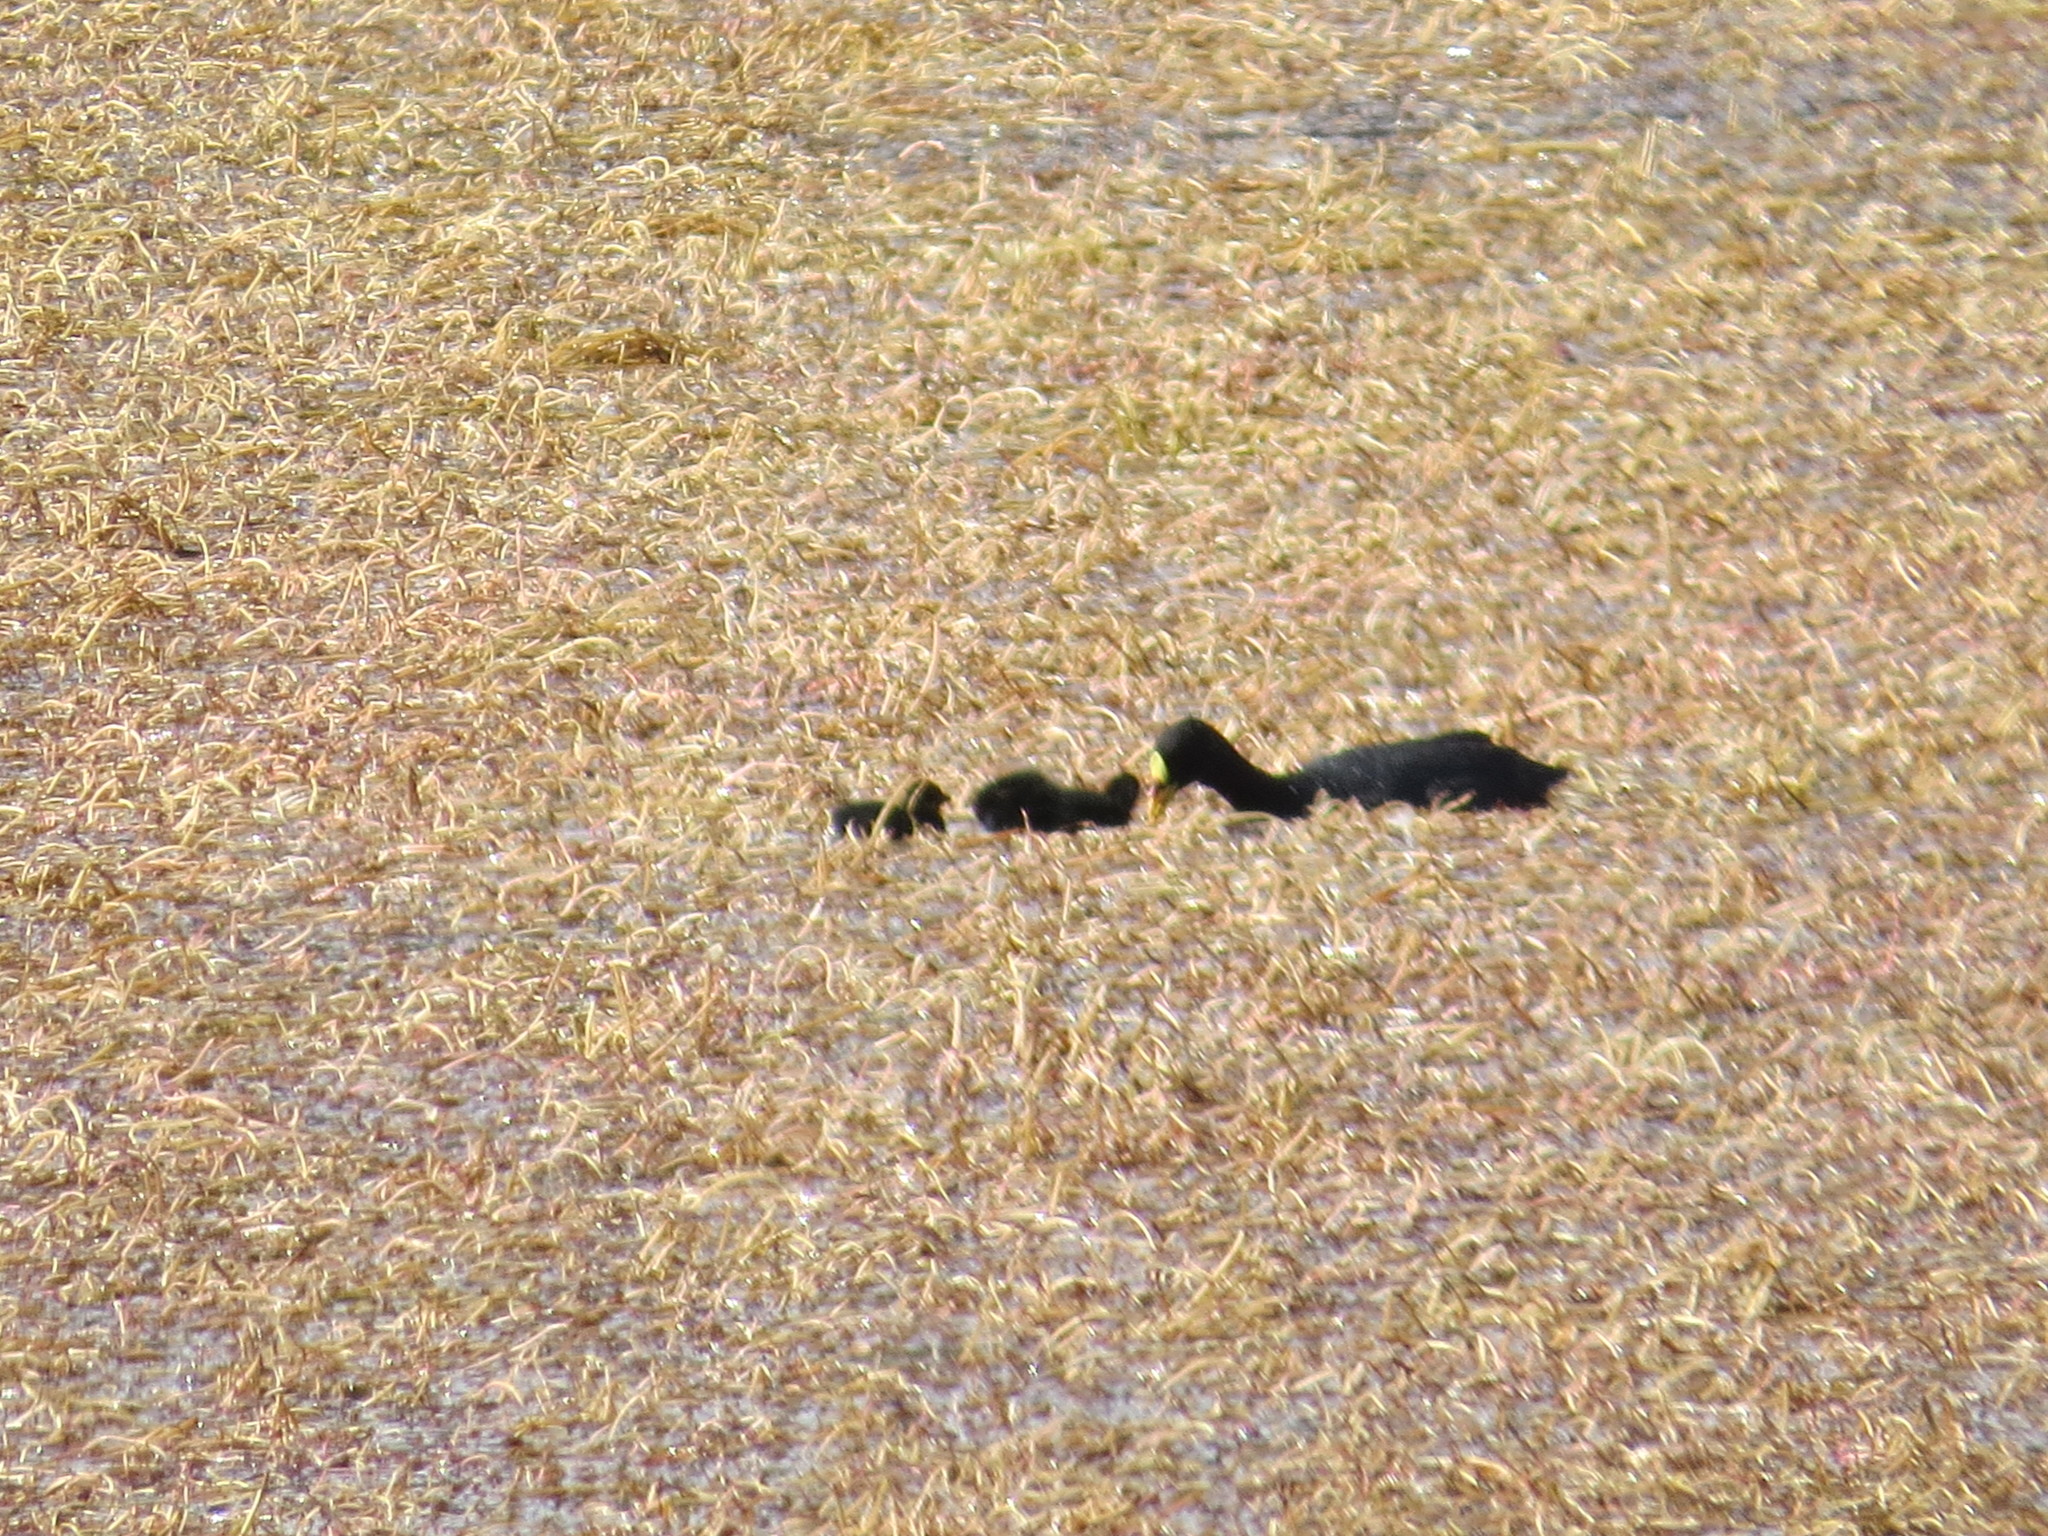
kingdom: Animalia
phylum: Chordata
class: Aves
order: Gruiformes
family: Rallidae
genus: Fulica
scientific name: Fulica armillata
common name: Red-gartered coot
